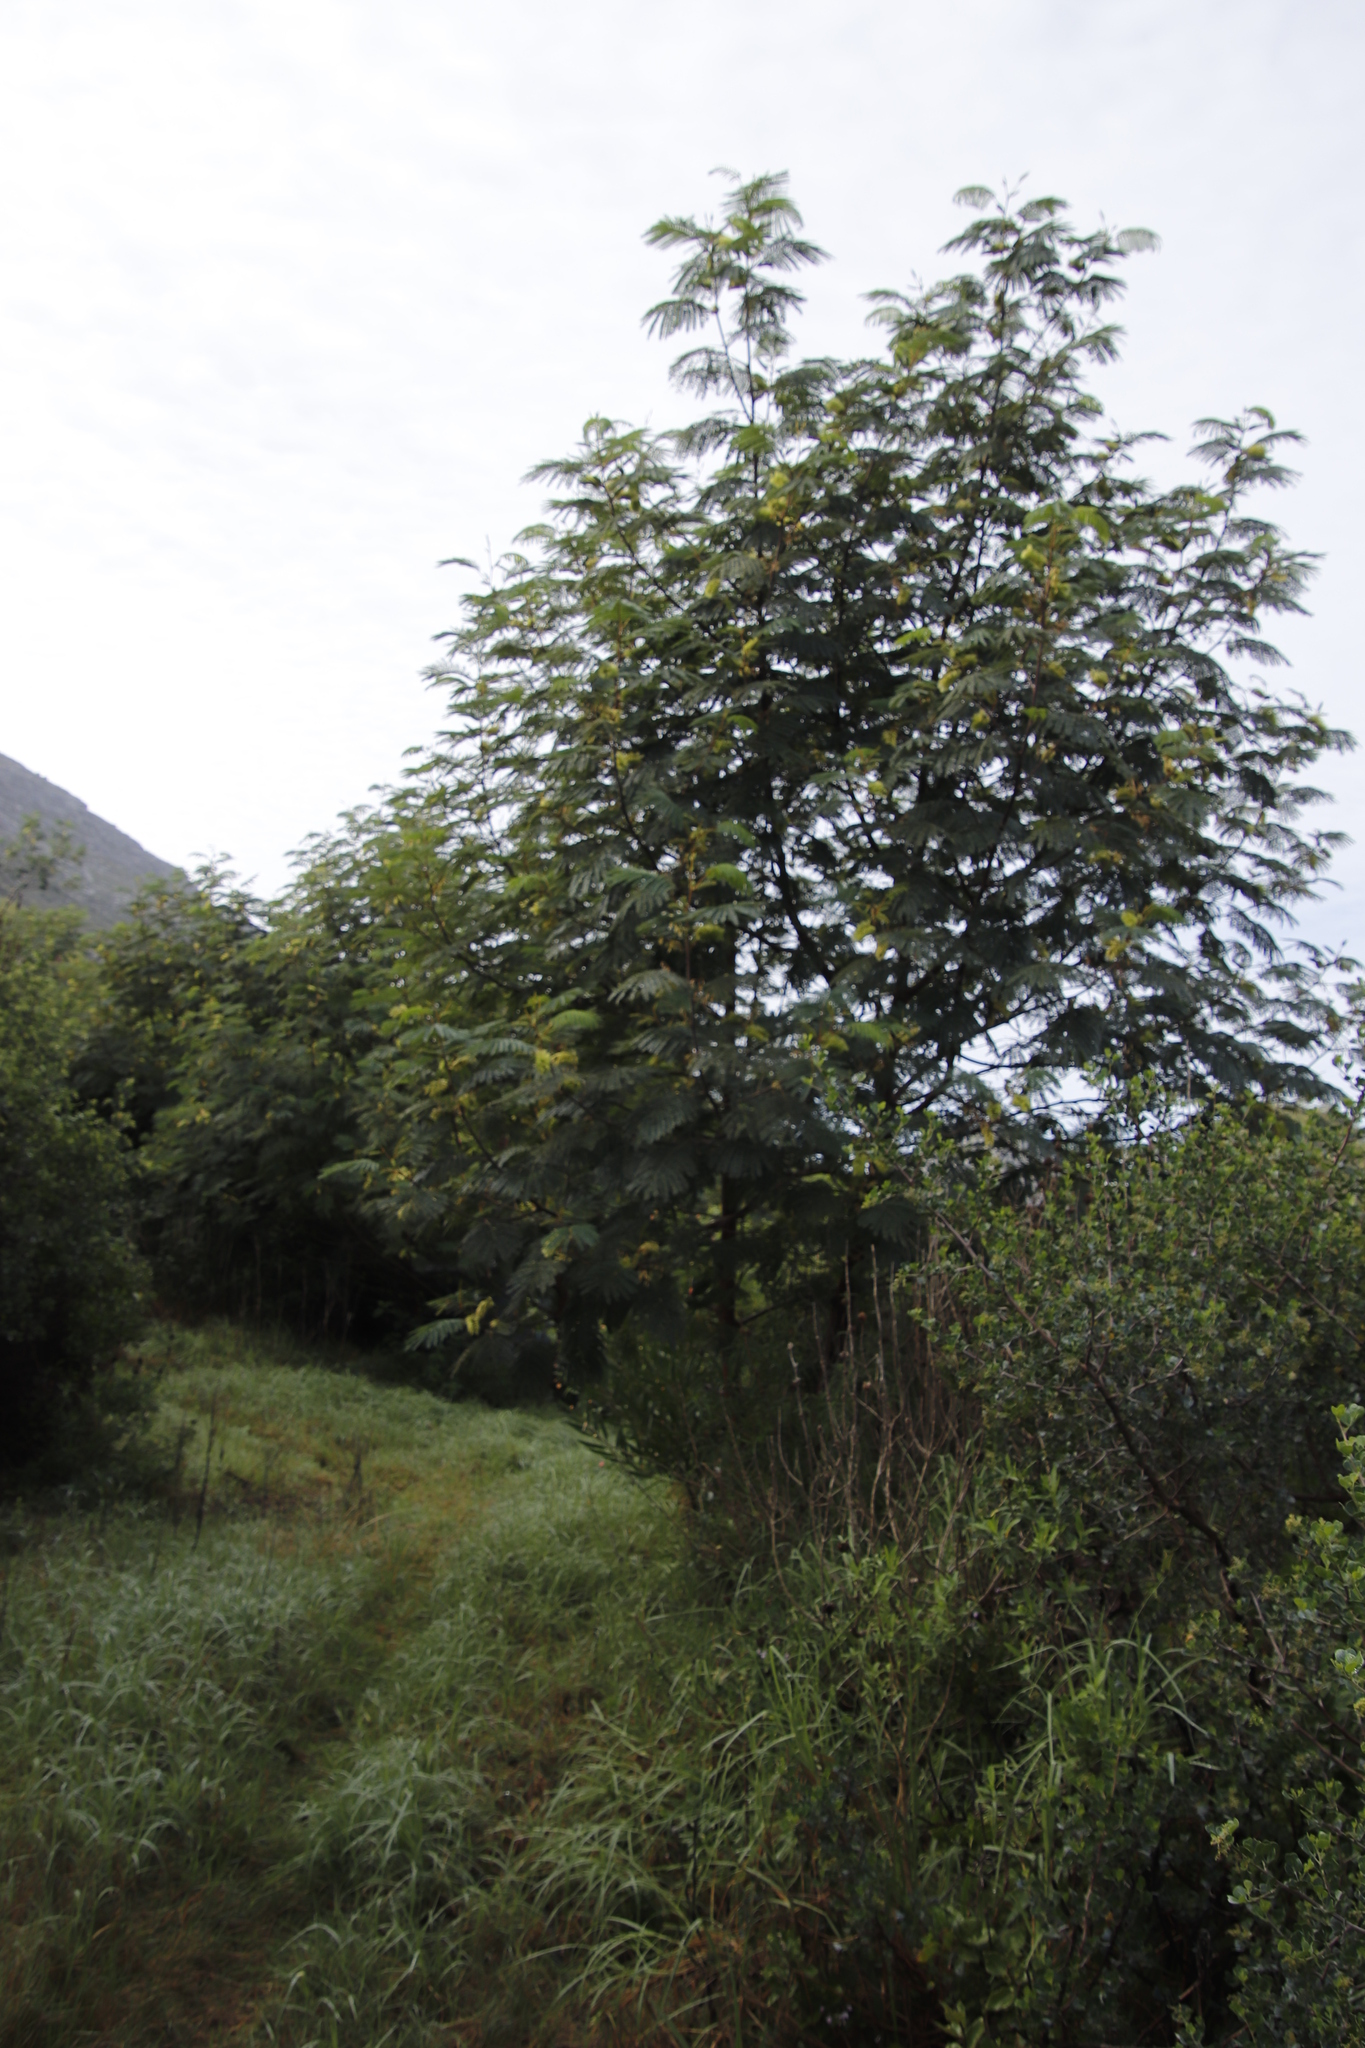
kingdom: Plantae
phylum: Tracheophyta
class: Magnoliopsida
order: Fabales
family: Fabaceae
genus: Paraserianthes
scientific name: Paraserianthes lophantha
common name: Plume albizia
